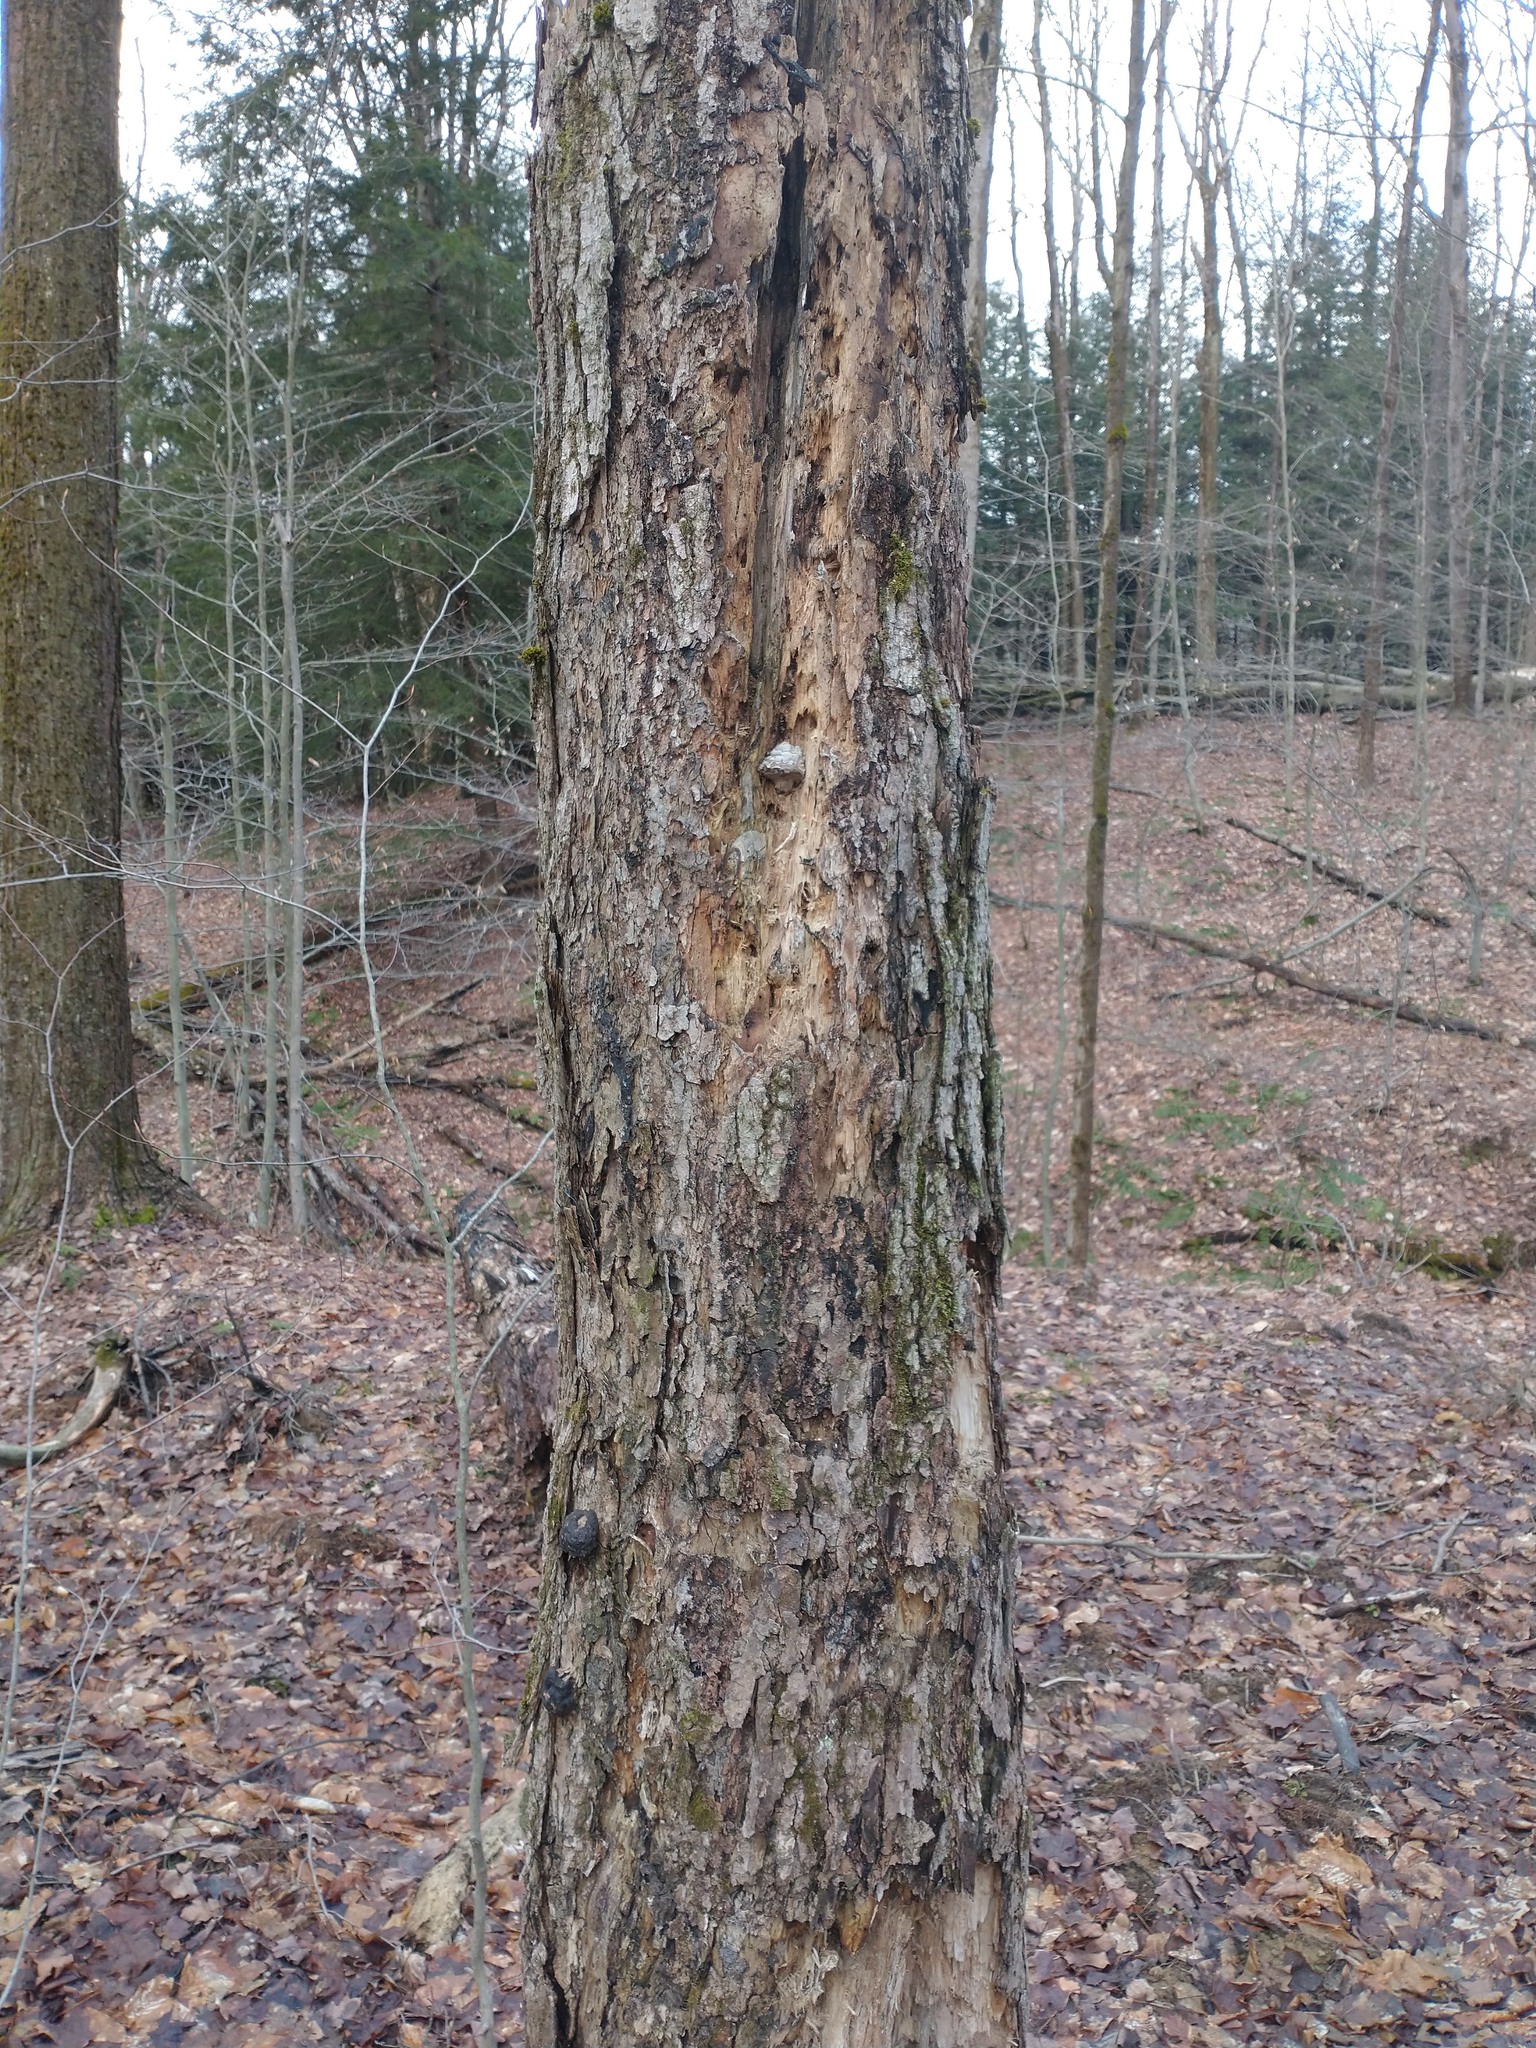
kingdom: Fungi
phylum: Basidiomycota
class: Agaricomycetes
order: Polyporales
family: Polyporaceae
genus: Fomes
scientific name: Fomes fomentarius
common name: Hoof fungus
